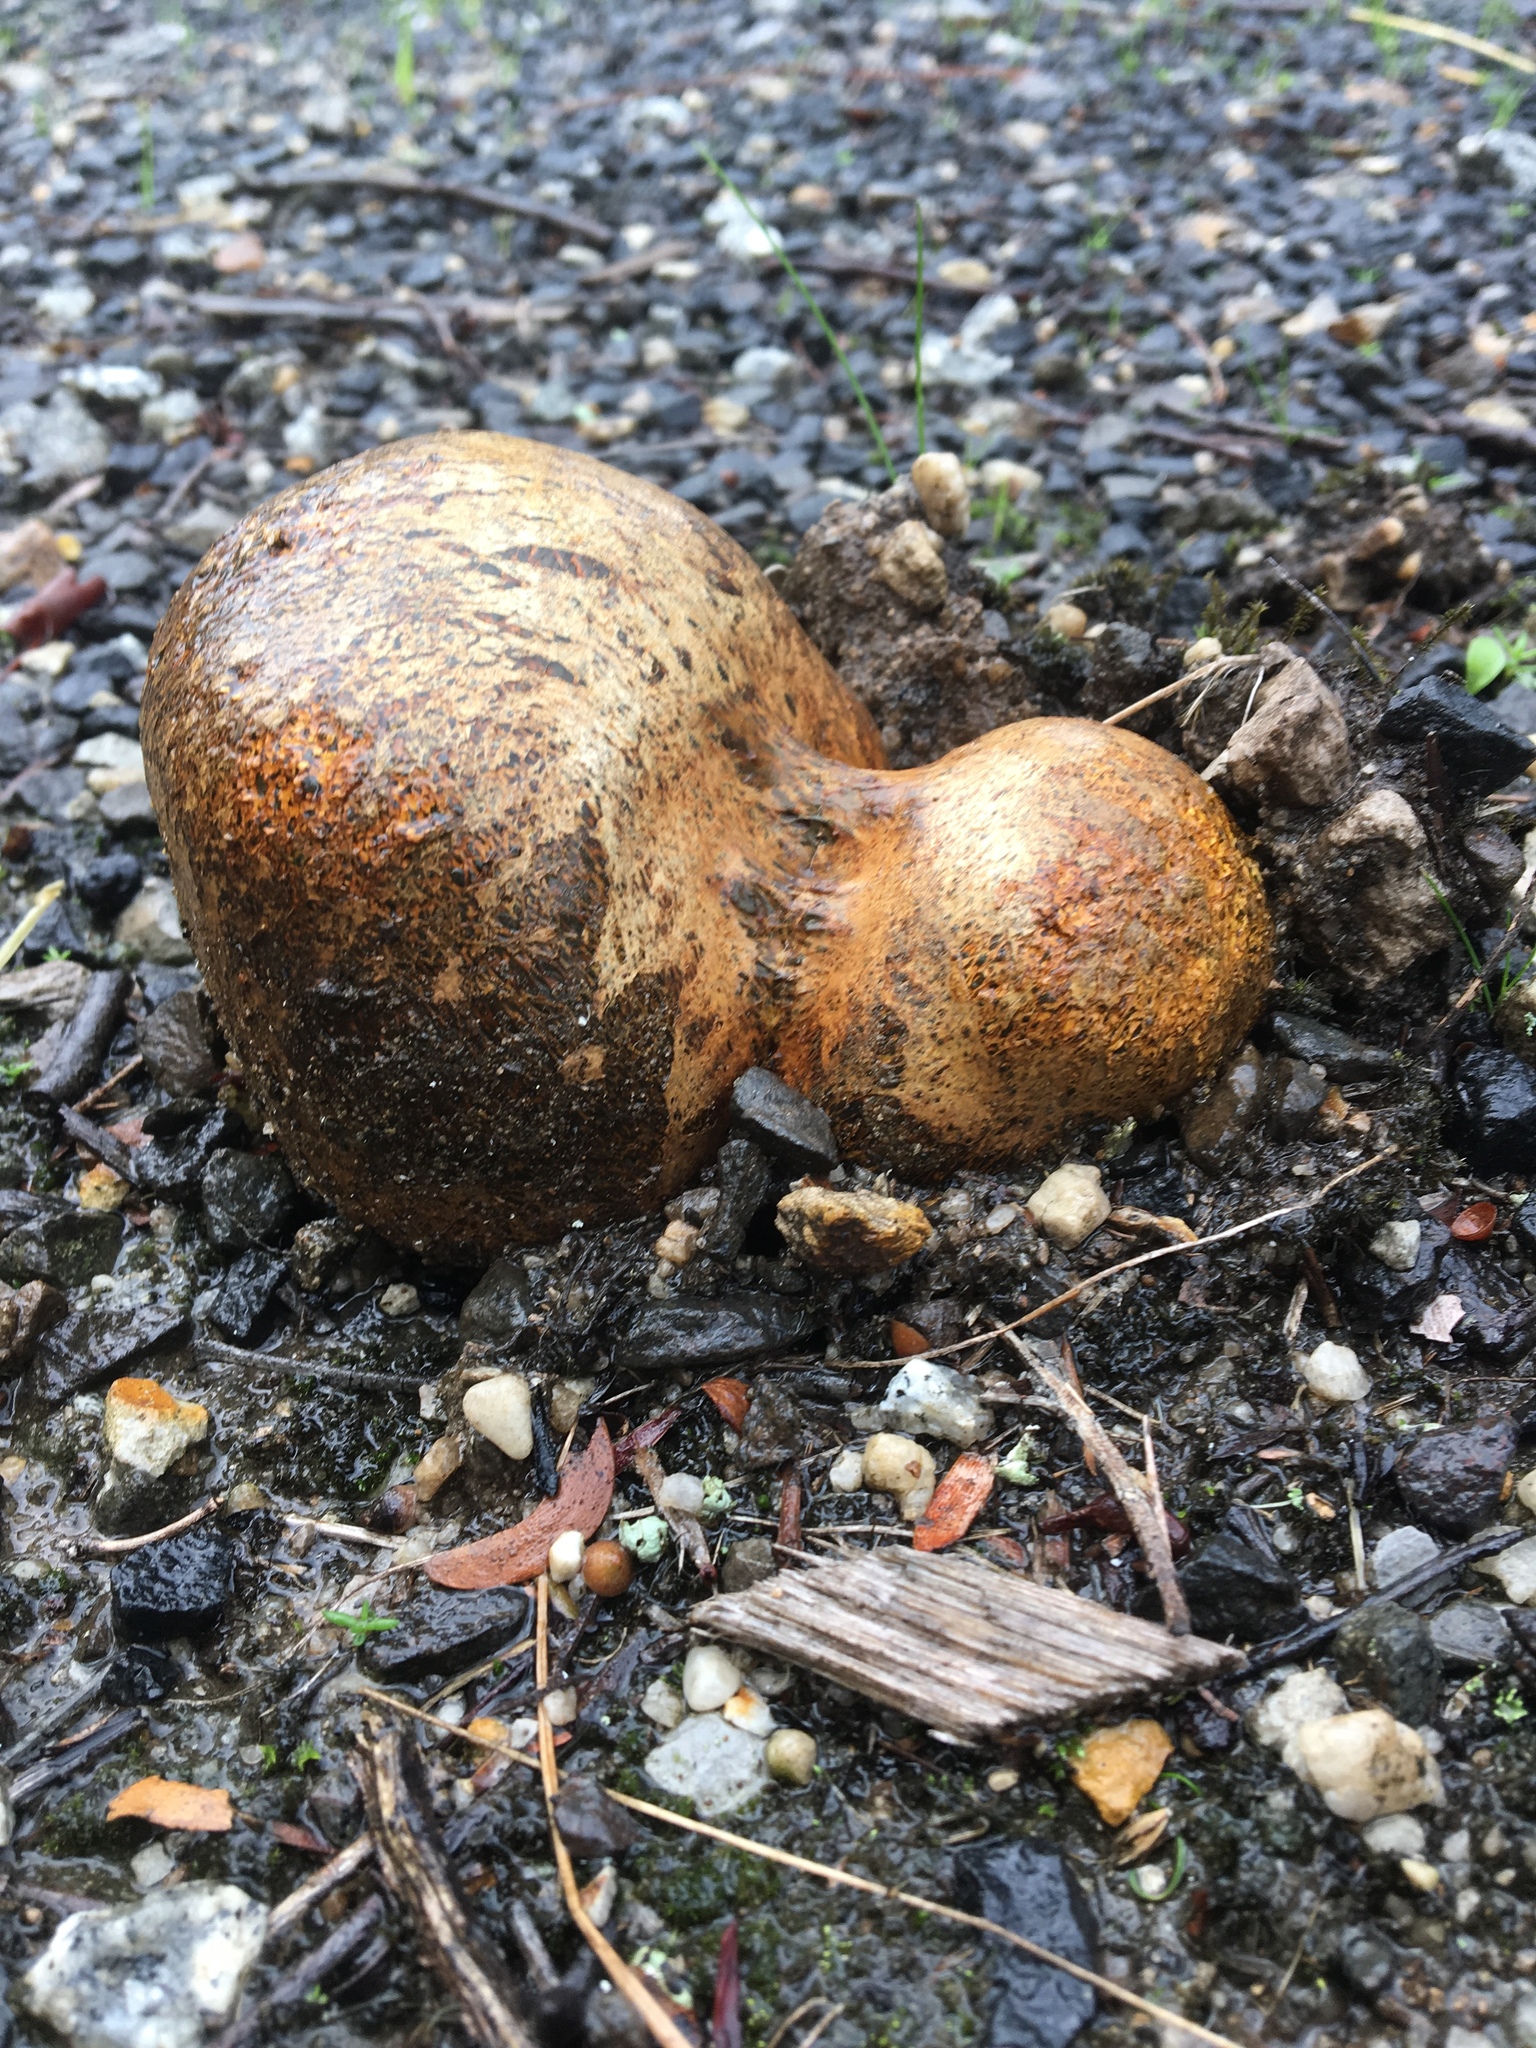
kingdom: Fungi
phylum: Basidiomycota
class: Agaricomycetes
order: Boletales
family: Sclerodermataceae
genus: Pisolithus
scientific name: Pisolithus arhizus
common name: Dyeball
